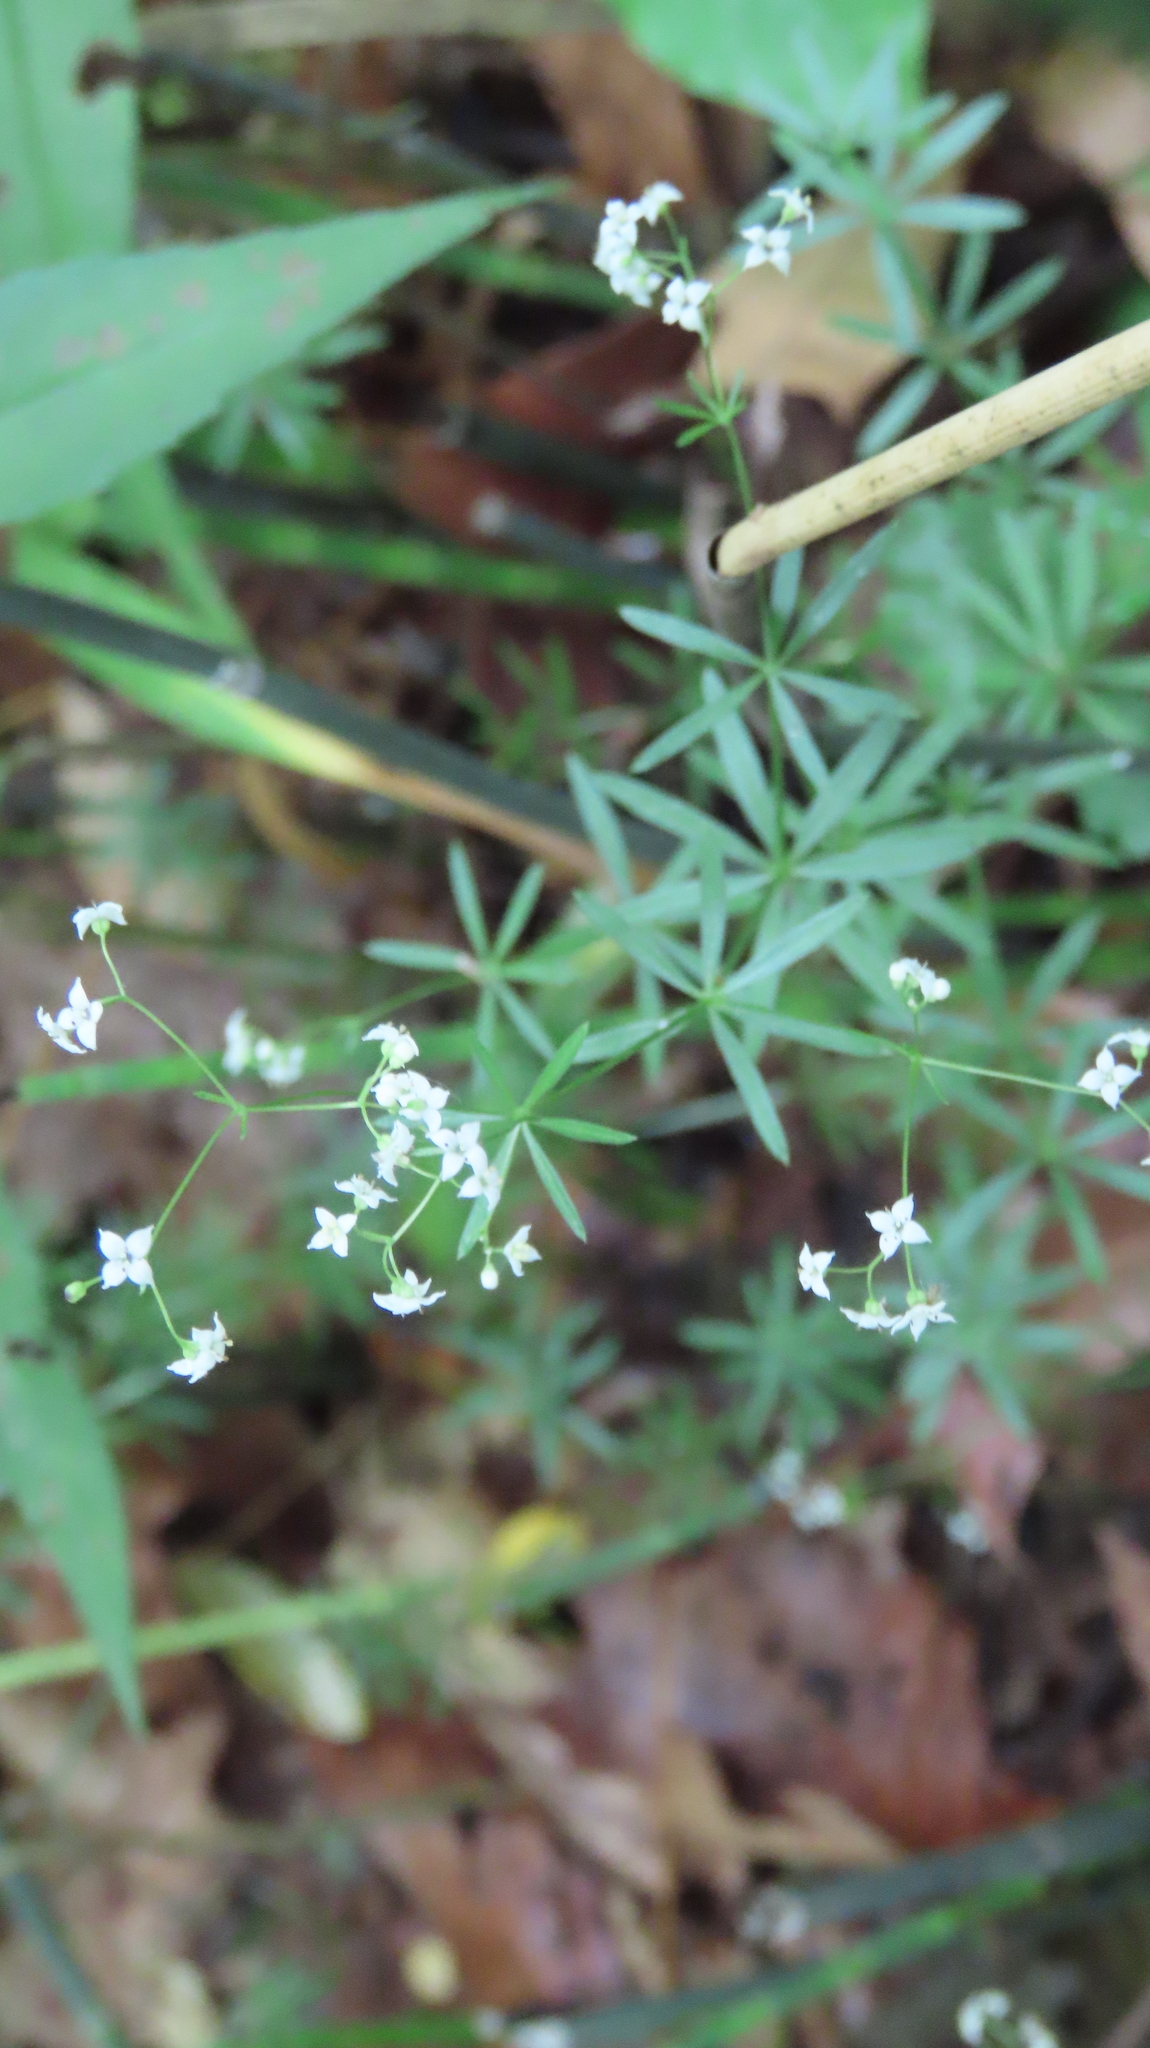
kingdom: Plantae
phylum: Tracheophyta
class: Magnoliopsida
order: Gentianales
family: Rubiaceae
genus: Galium
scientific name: Galium concinnum
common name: Shining bedstraw
